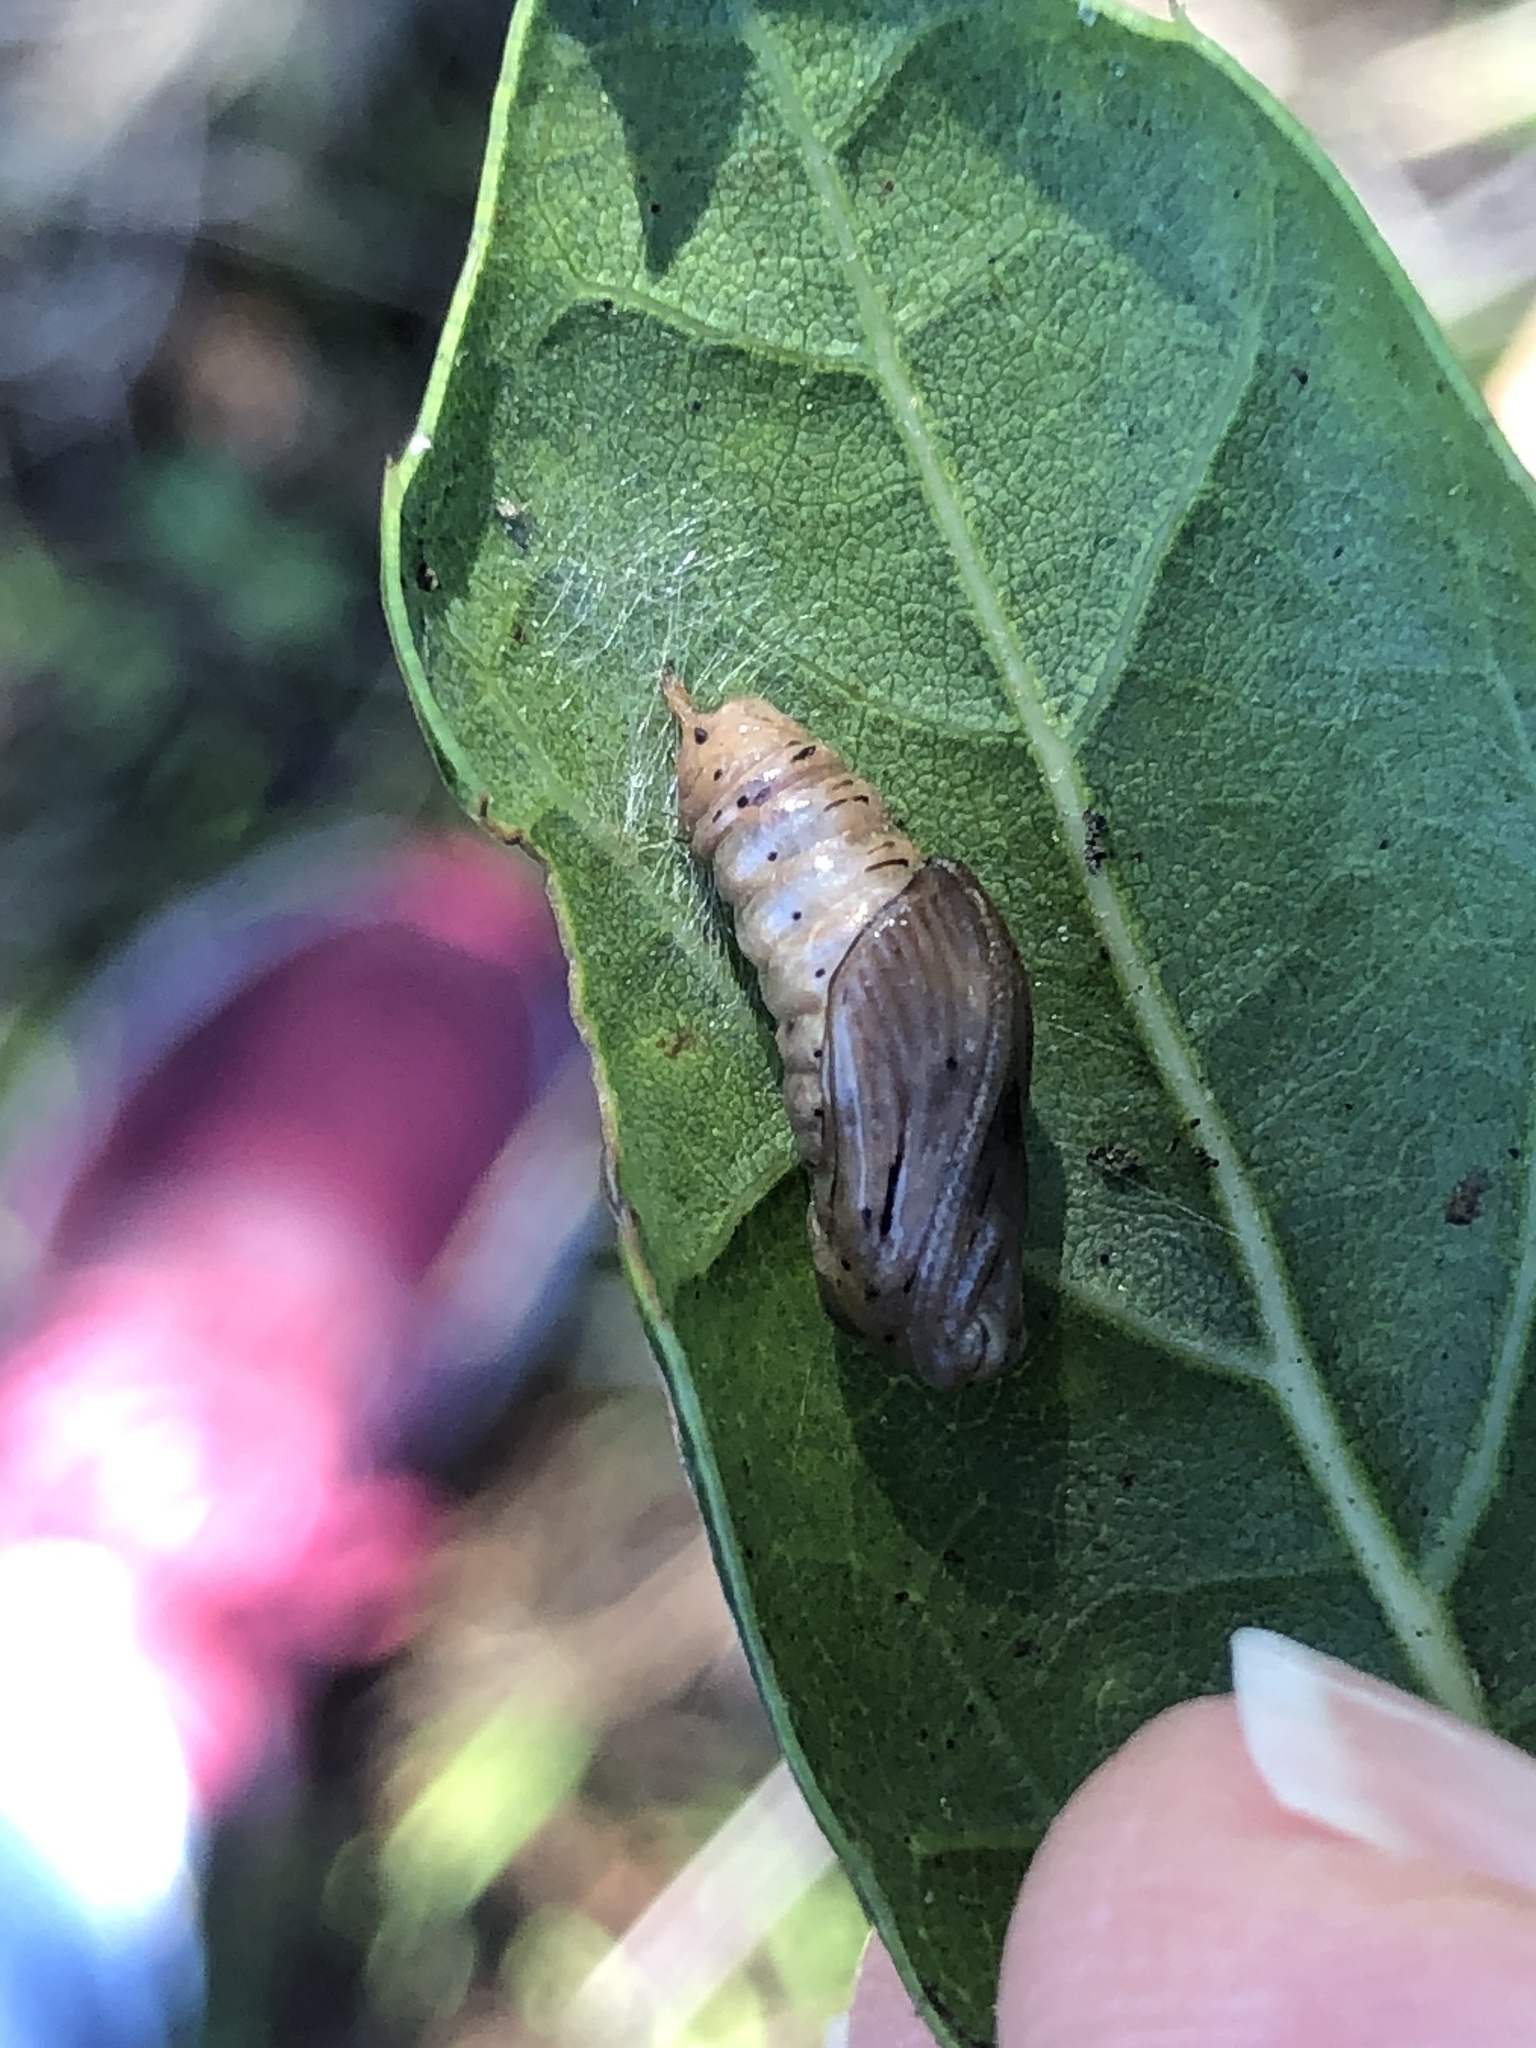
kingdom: Animalia
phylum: Arthropoda
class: Insecta
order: Lepidoptera
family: Notodontidae
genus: Phryganidia
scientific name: Phryganidia californica
